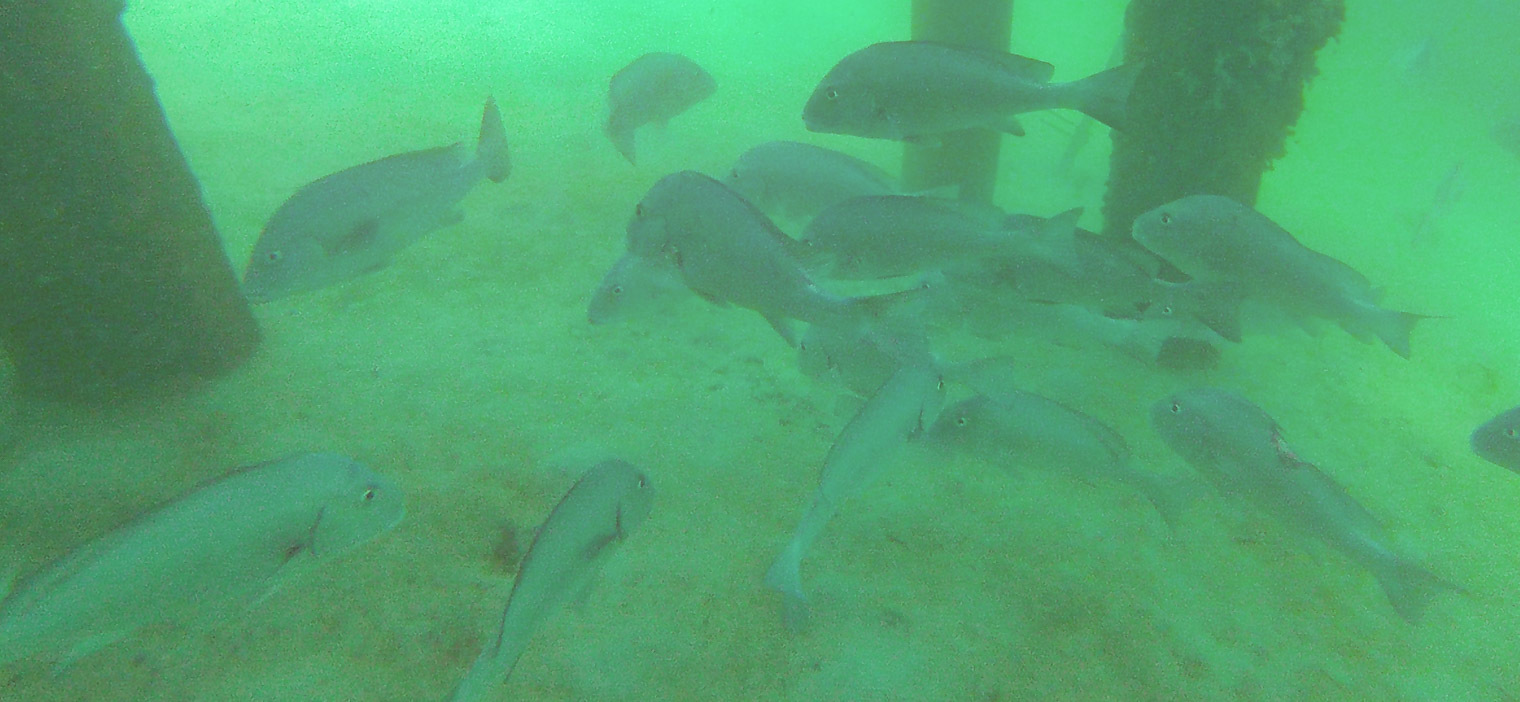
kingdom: Animalia
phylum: Chordata
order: Perciformes
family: Haemulidae
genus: Diagramma
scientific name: Diagramma pictum
